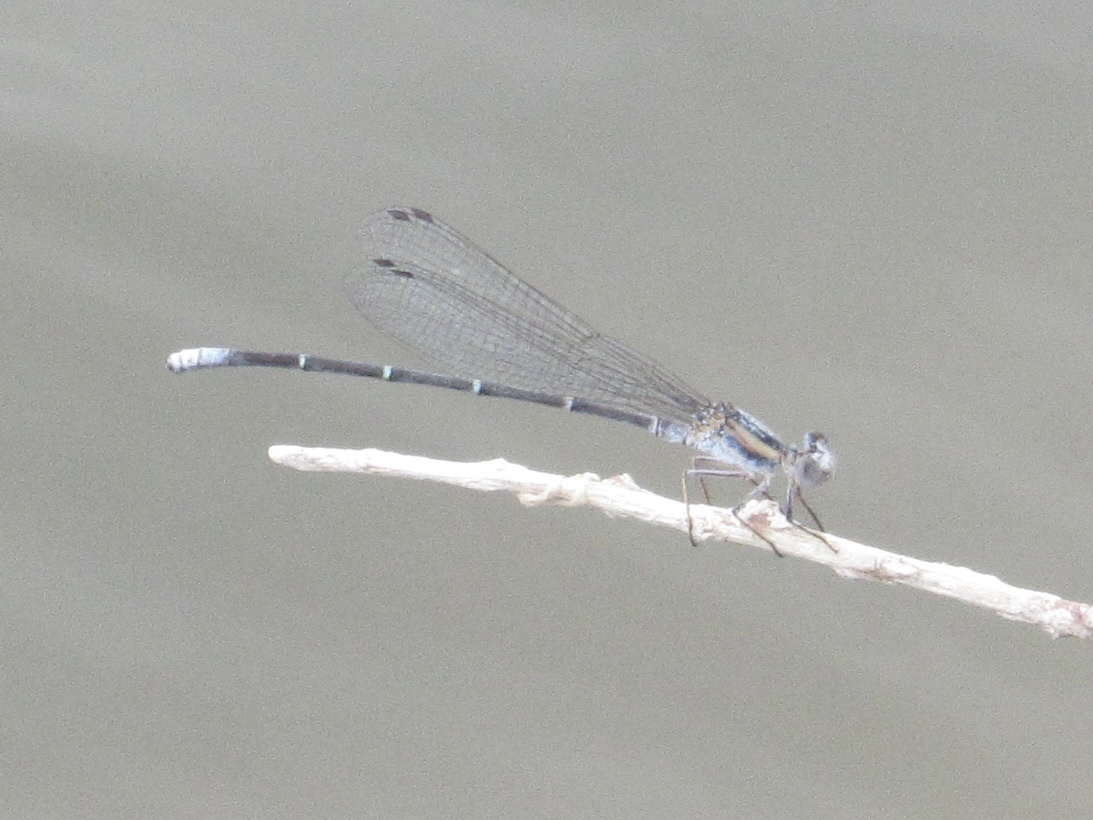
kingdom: Animalia
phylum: Arthropoda
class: Insecta
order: Odonata
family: Coenagrionidae
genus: Argia
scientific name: Argia moesta
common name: Powdered dancer
